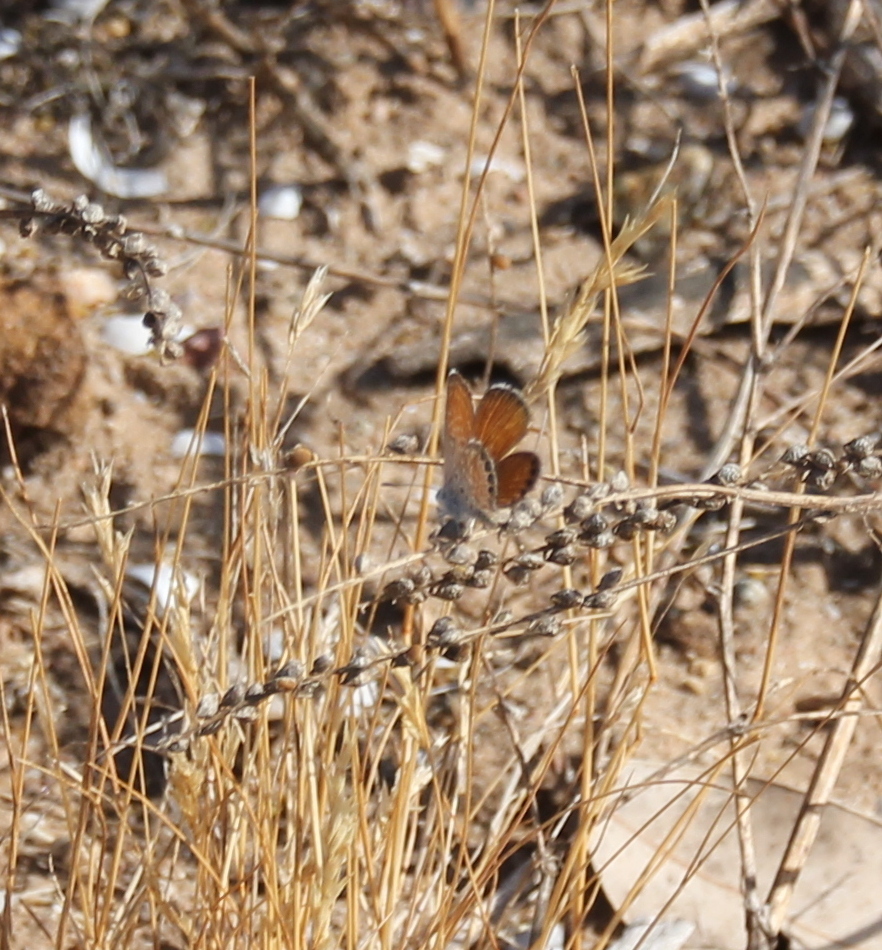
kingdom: Animalia
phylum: Arthropoda
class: Insecta
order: Lepidoptera
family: Lycaenidae
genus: Brephidium
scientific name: Brephidium exilis
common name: Pygmy blue
